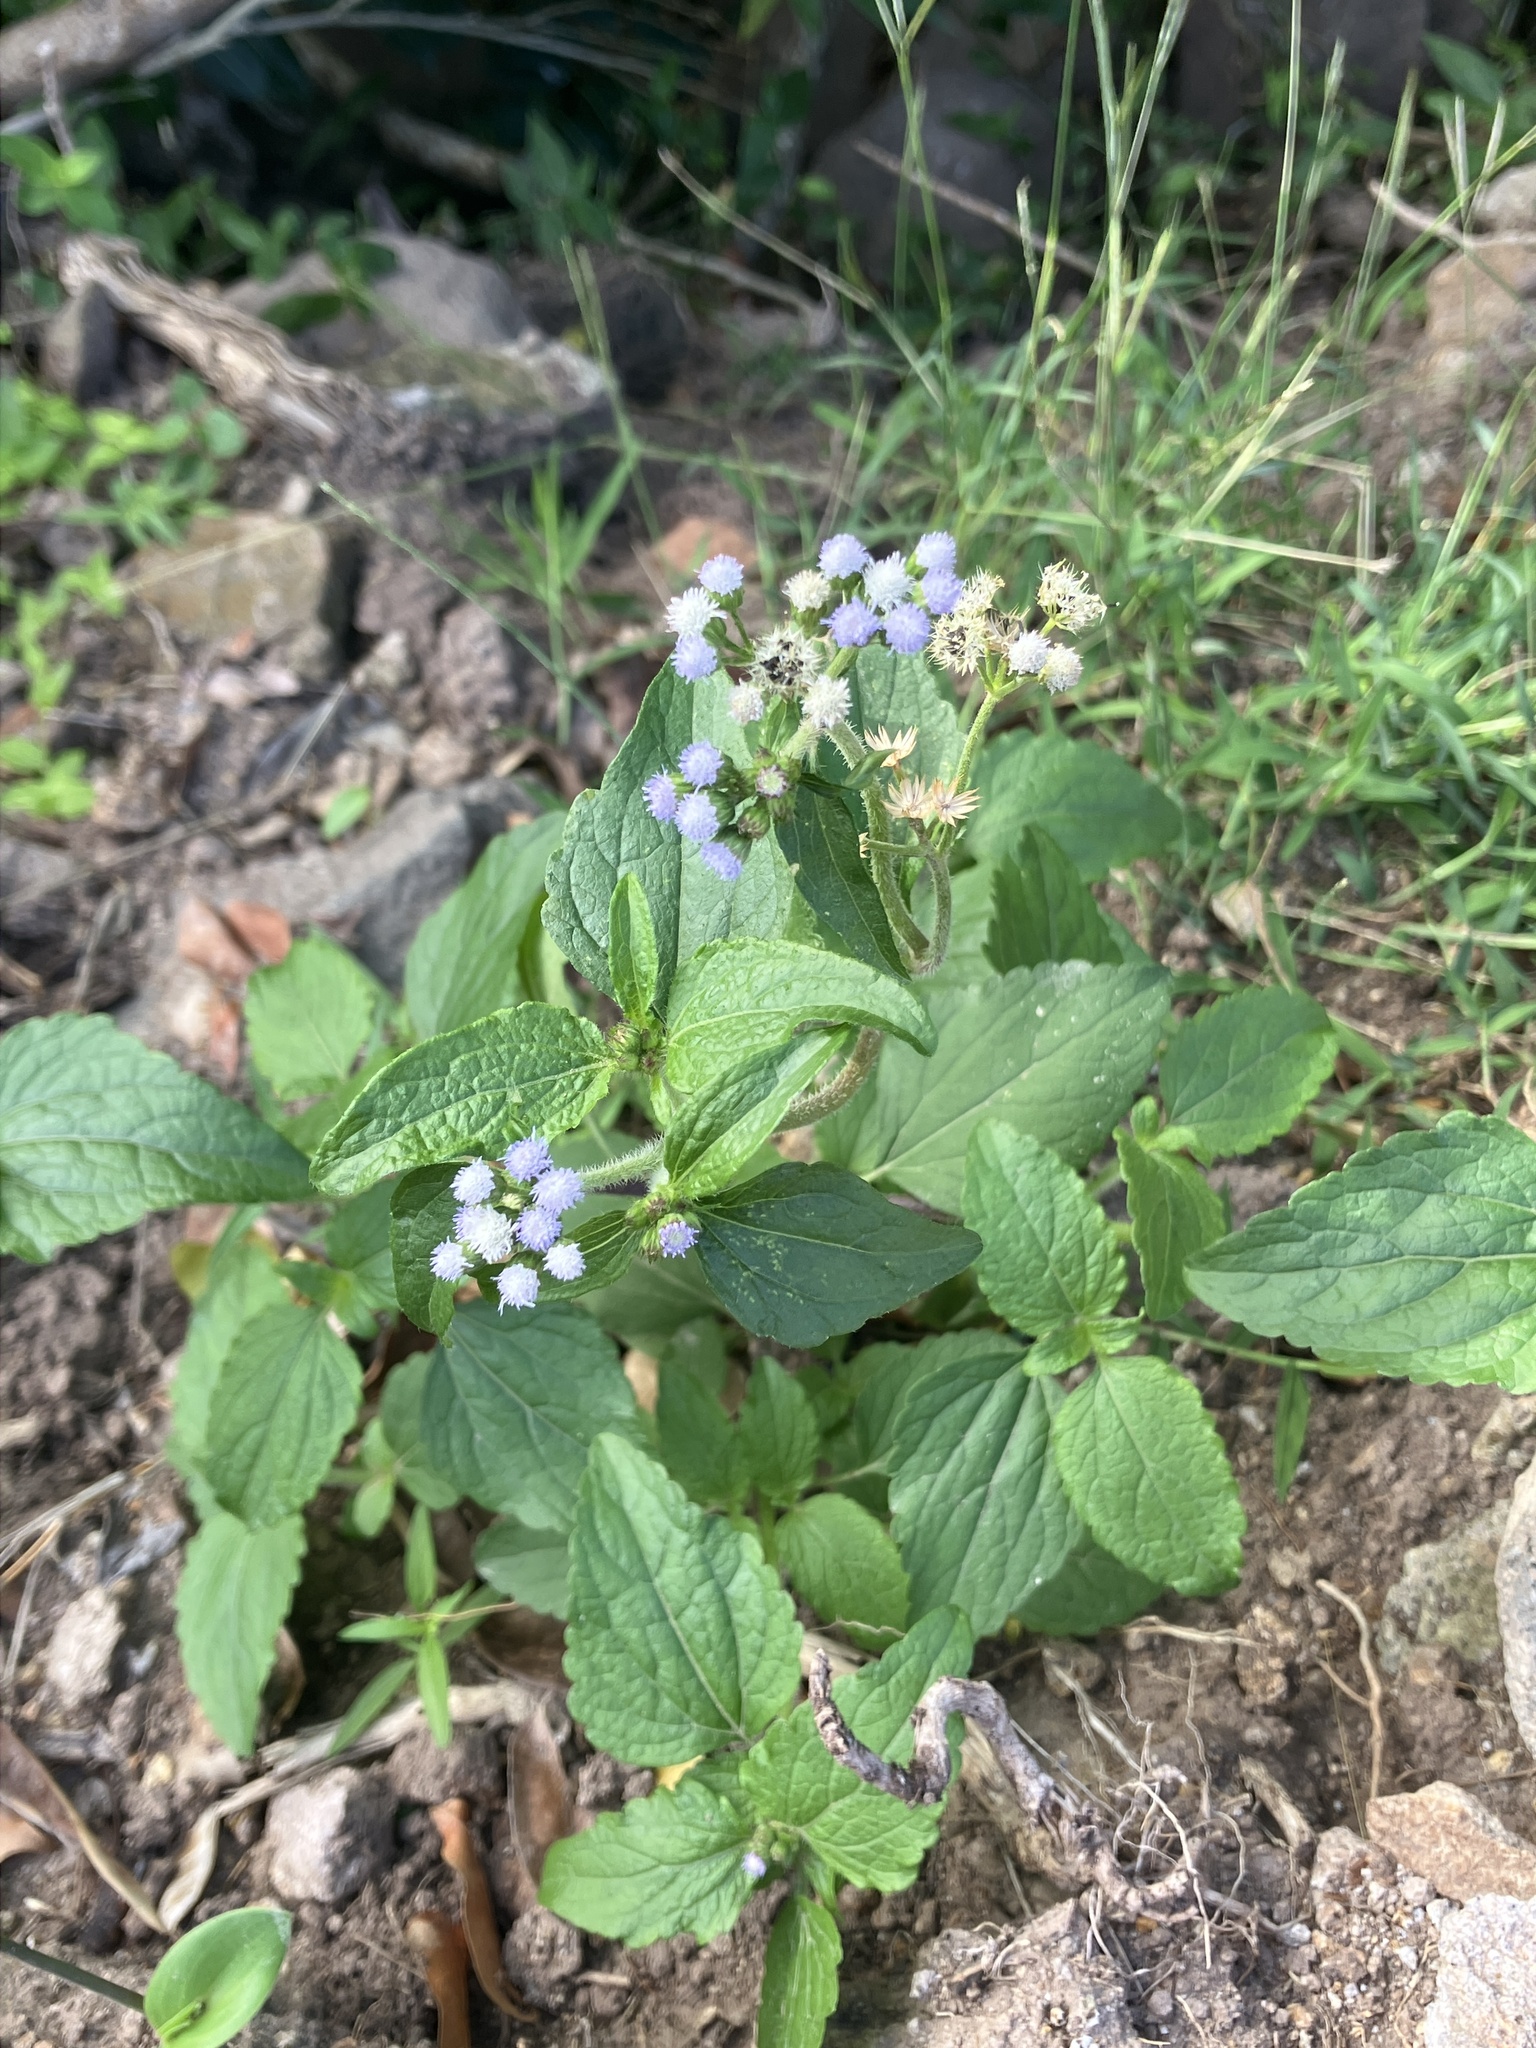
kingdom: Plantae
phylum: Tracheophyta
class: Magnoliopsida
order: Asterales
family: Asteraceae
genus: Ageratum
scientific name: Ageratum conyzoides
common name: Tropical whiteweed
